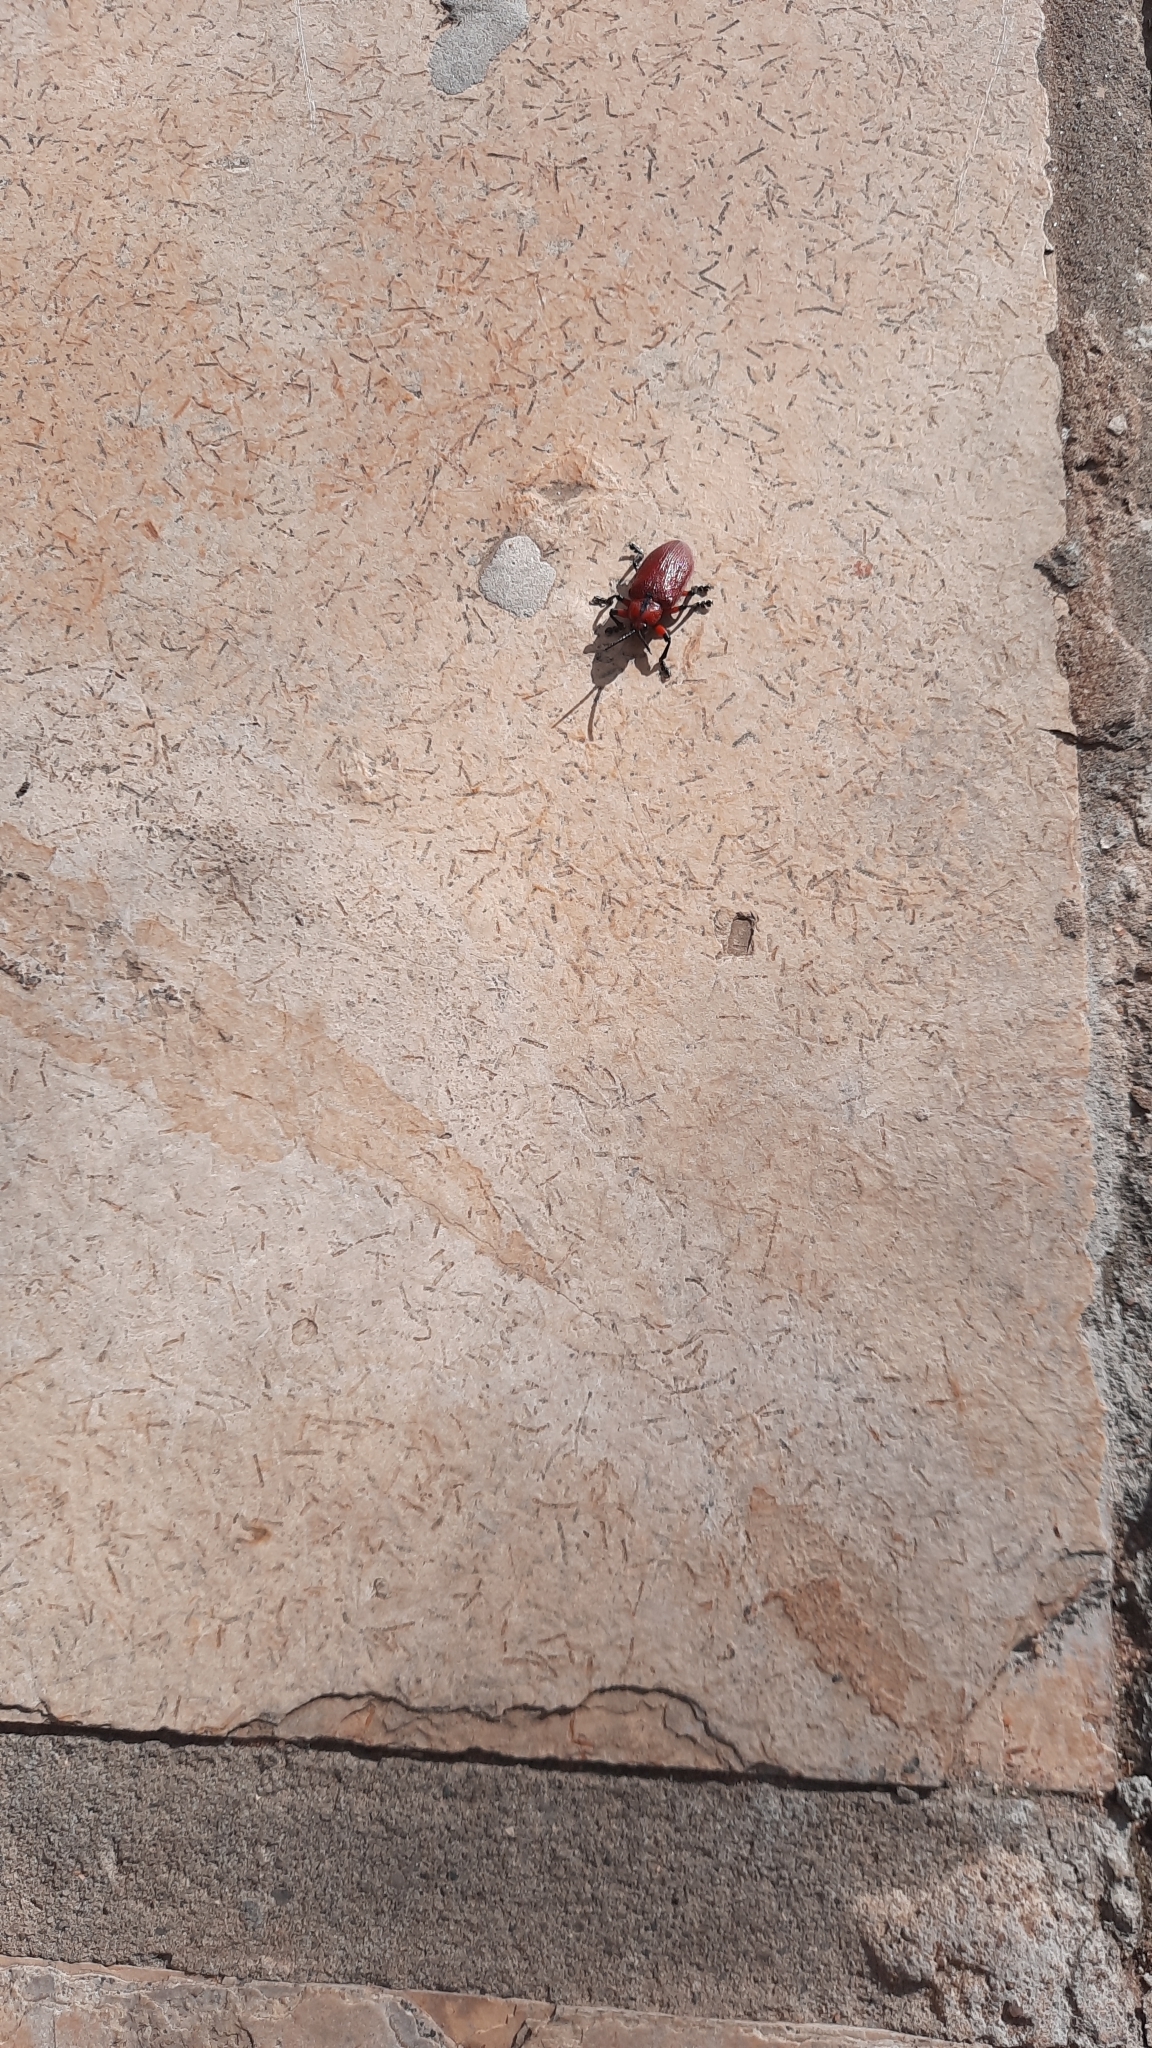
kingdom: Animalia
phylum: Arthropoda
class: Insecta
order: Coleoptera
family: Chrysomelidae
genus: Coraliomela
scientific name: Coraliomela brunnea
